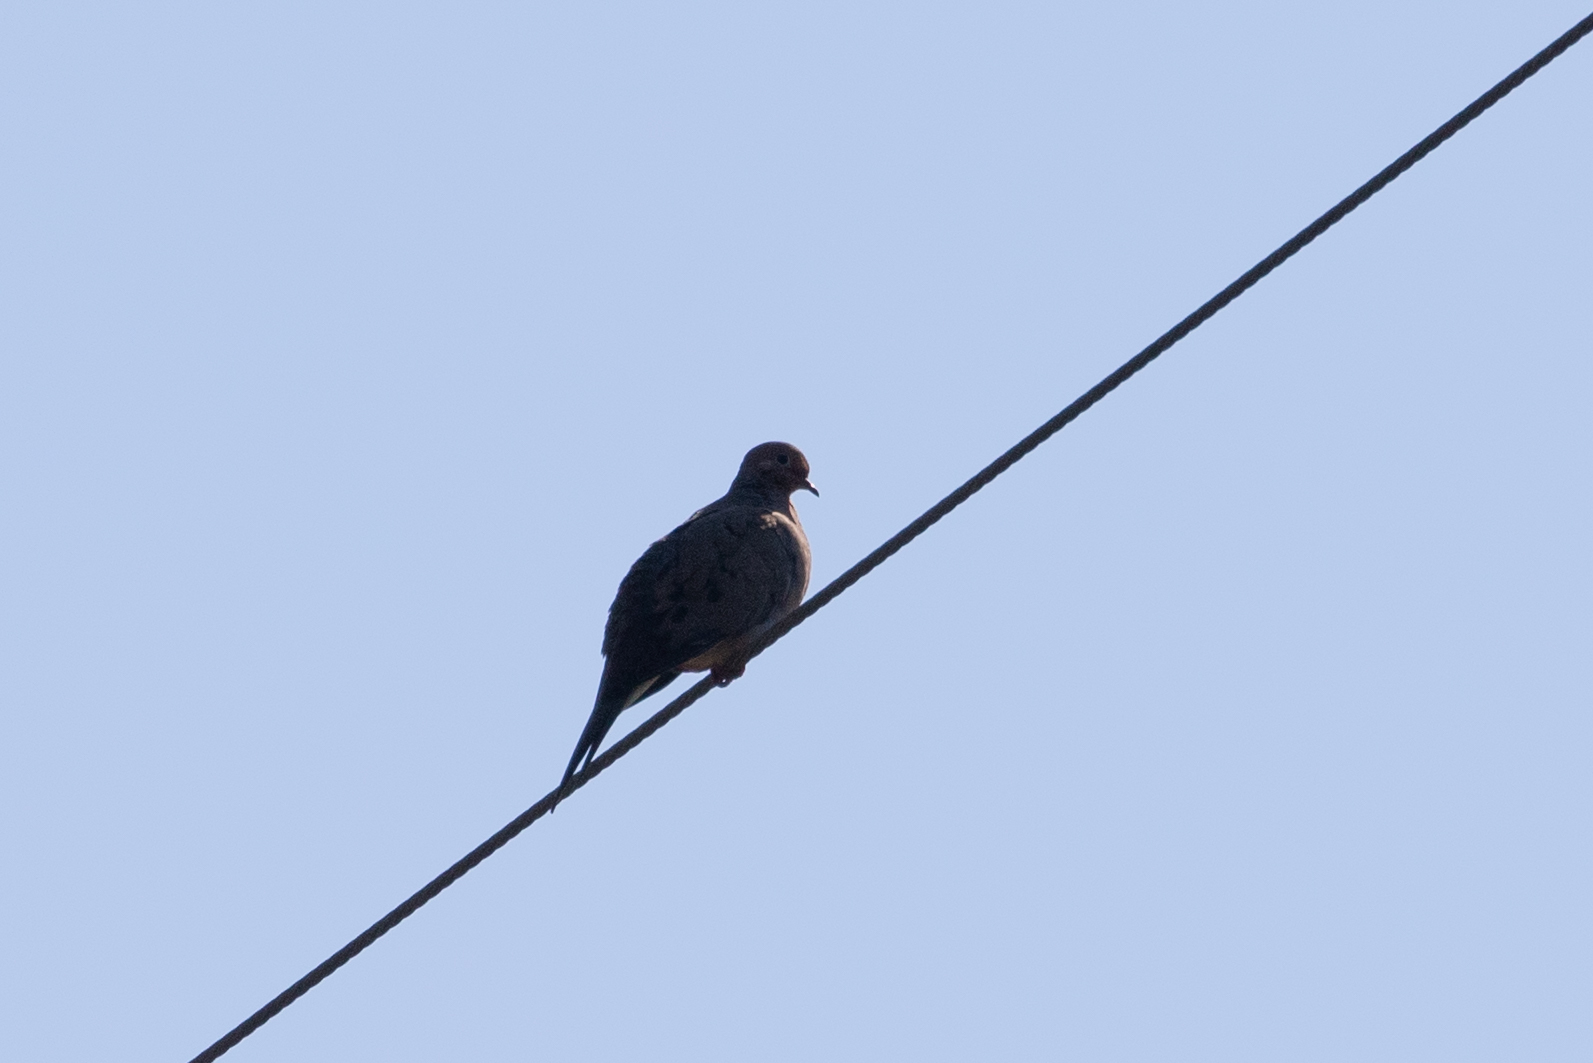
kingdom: Animalia
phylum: Chordata
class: Aves
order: Columbiformes
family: Columbidae
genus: Zenaida
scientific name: Zenaida macroura
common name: Mourning dove
